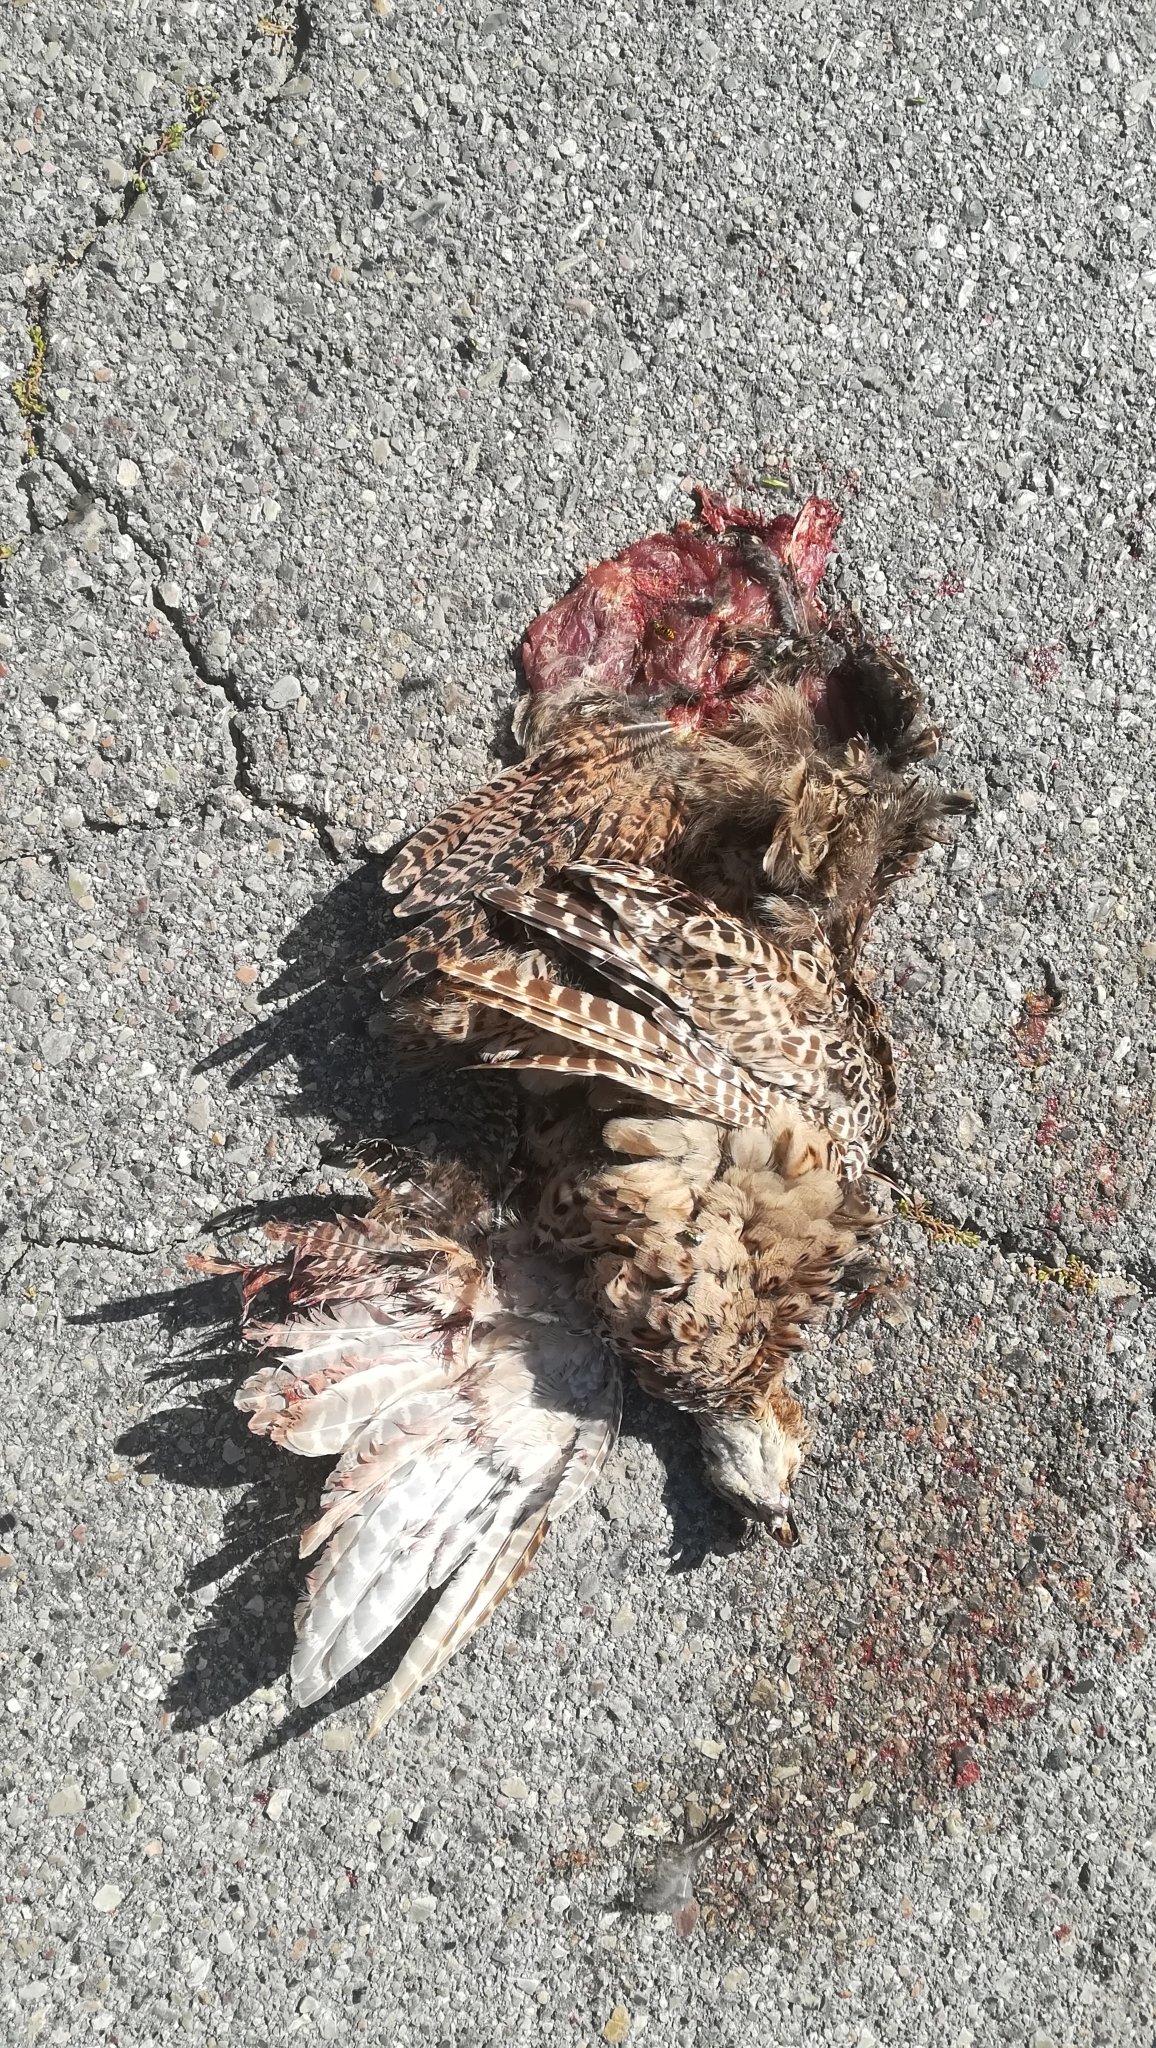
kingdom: Animalia
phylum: Chordata
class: Aves
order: Galliformes
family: Phasianidae
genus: Phasianus
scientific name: Phasianus colchicus
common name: Common pheasant
